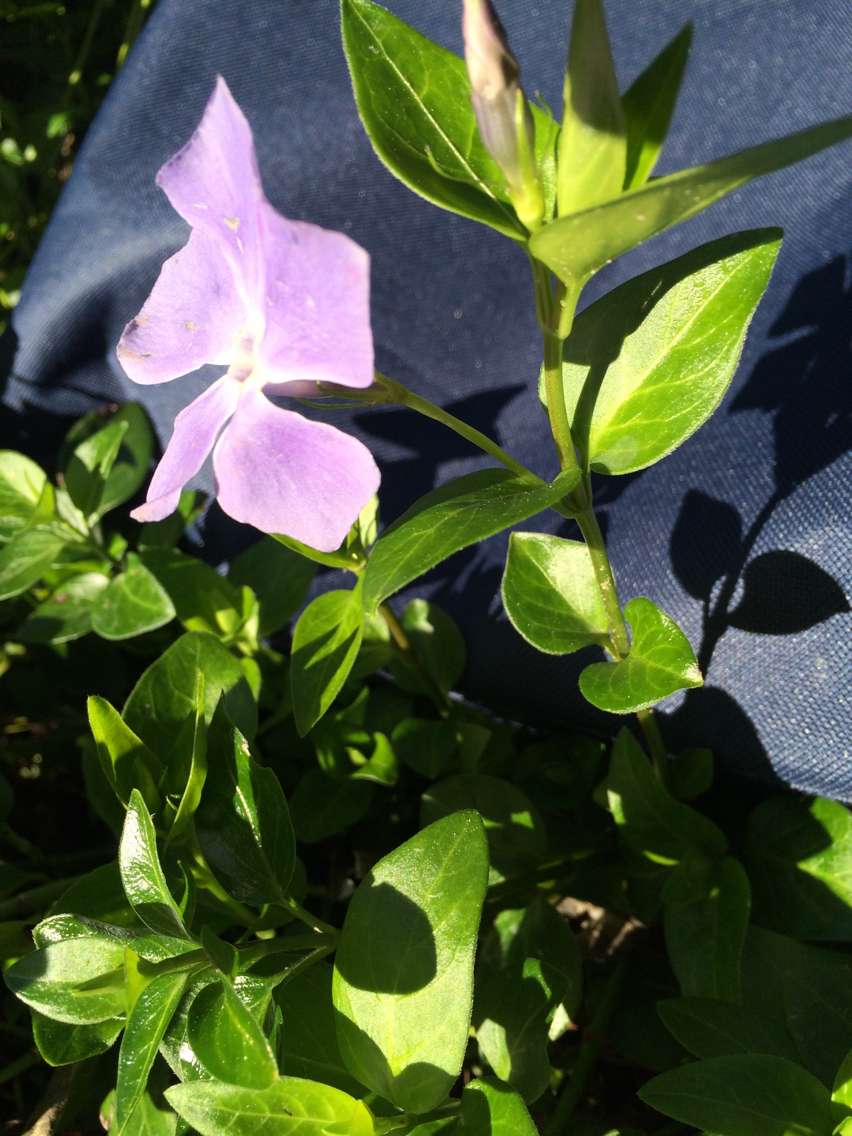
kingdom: Plantae
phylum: Tracheophyta
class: Magnoliopsida
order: Gentianales
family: Apocynaceae
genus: Vinca
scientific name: Vinca major
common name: Greater periwinkle
